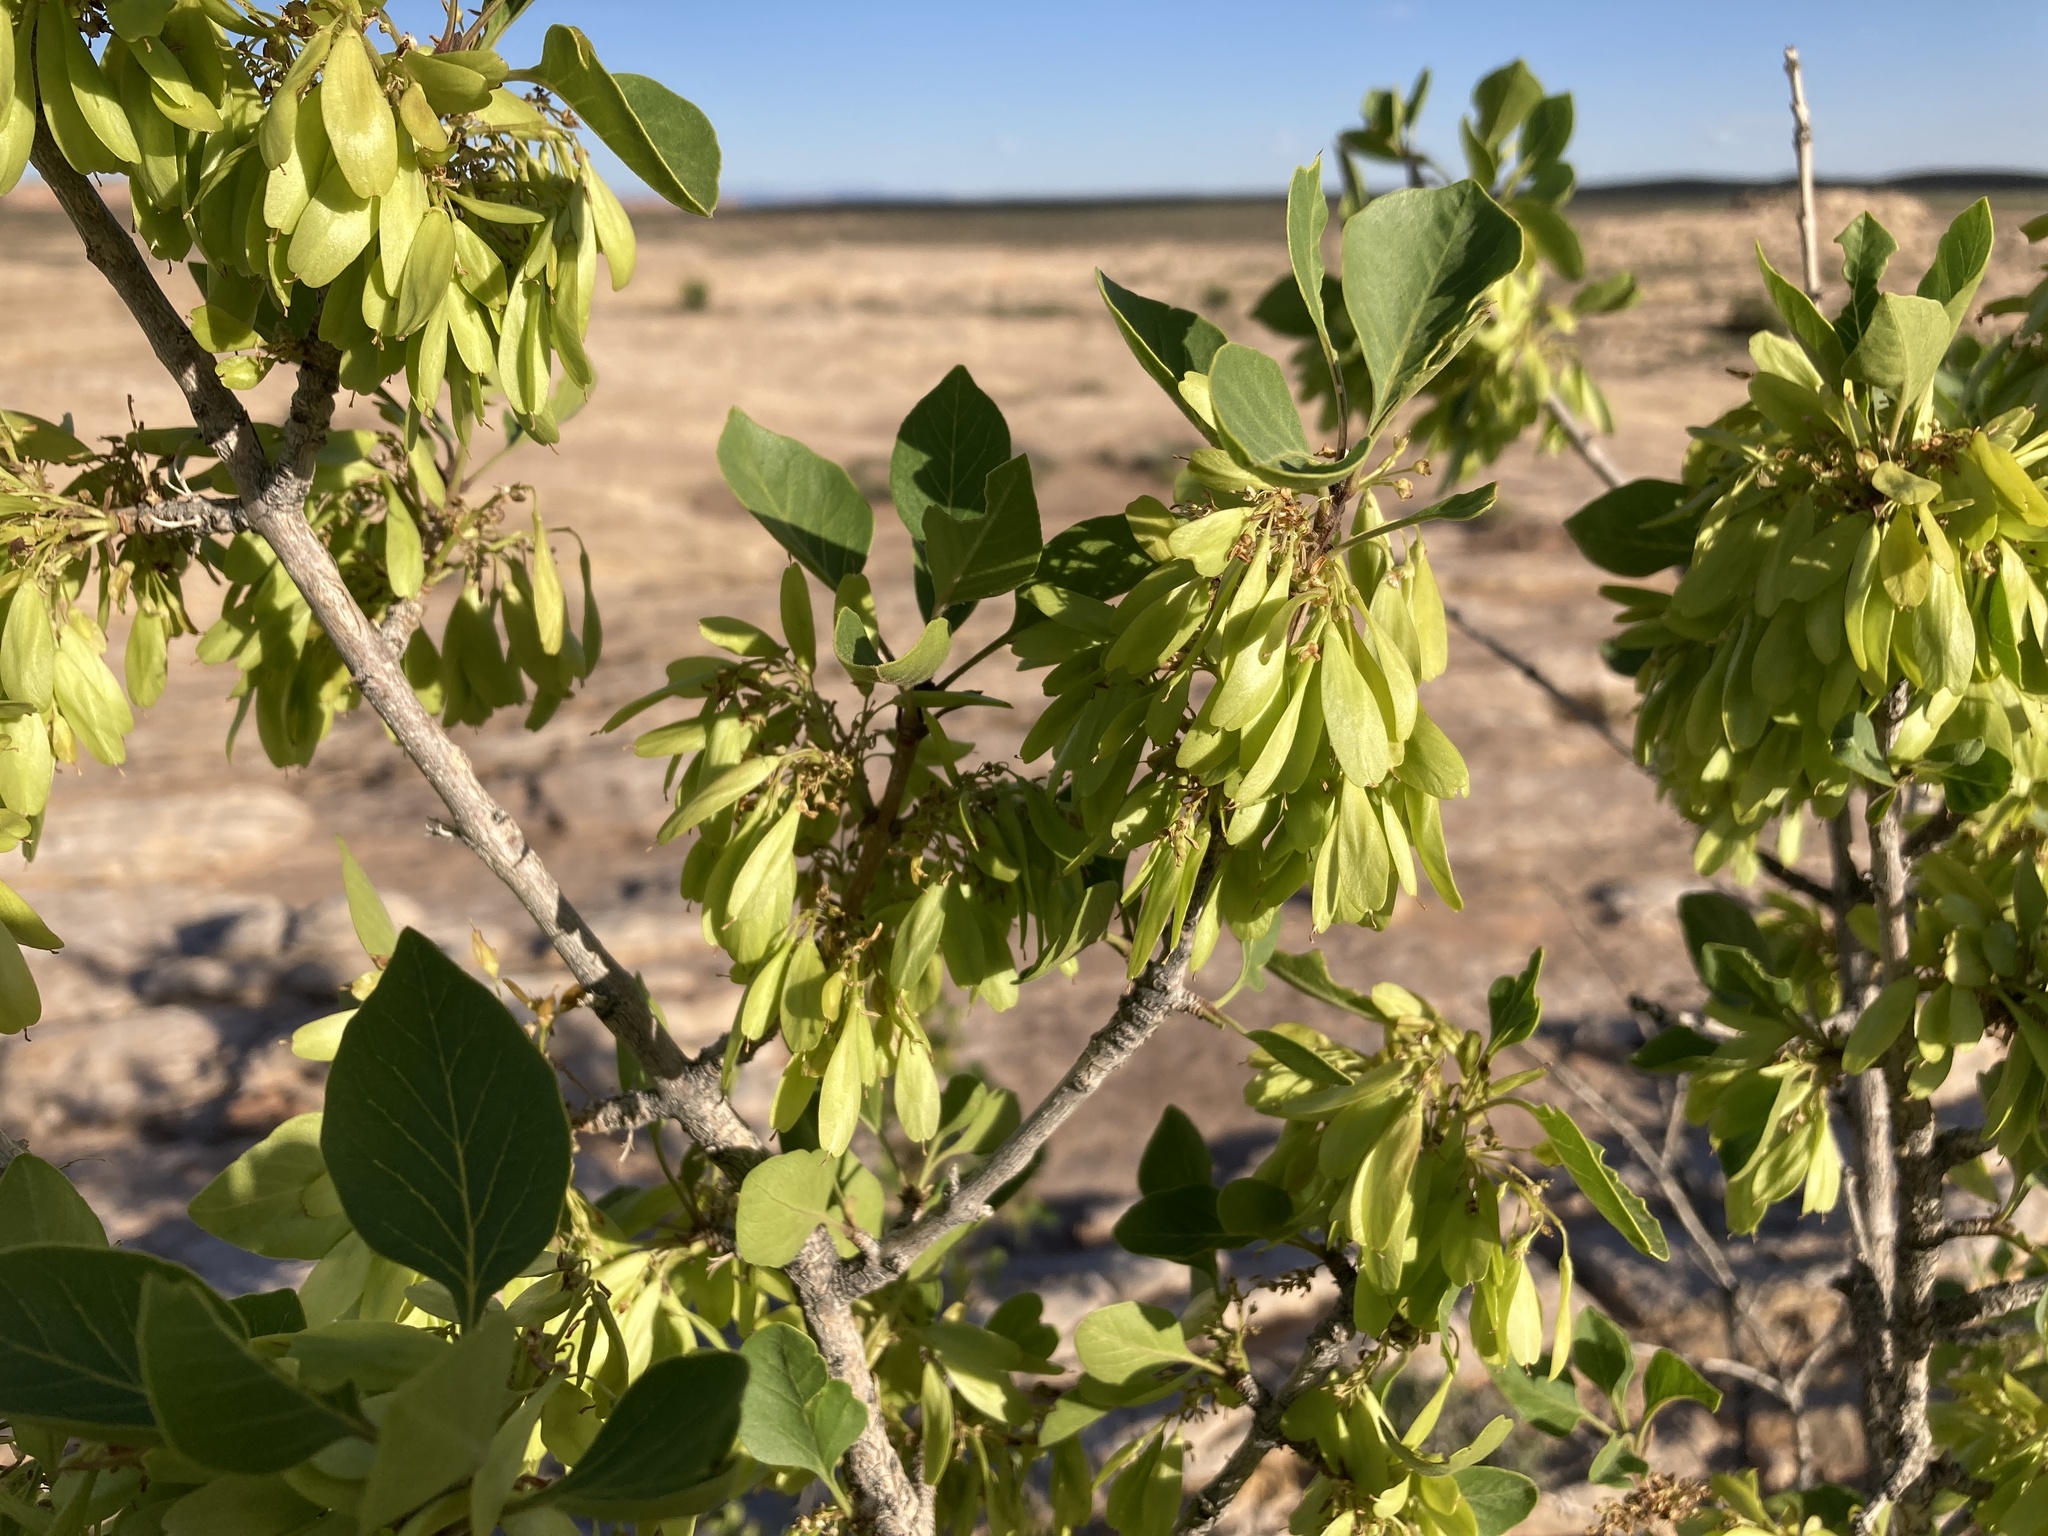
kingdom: Plantae
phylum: Tracheophyta
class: Magnoliopsida
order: Lamiales
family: Oleaceae
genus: Fraxinus
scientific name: Fraxinus anomala
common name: Utah ash
